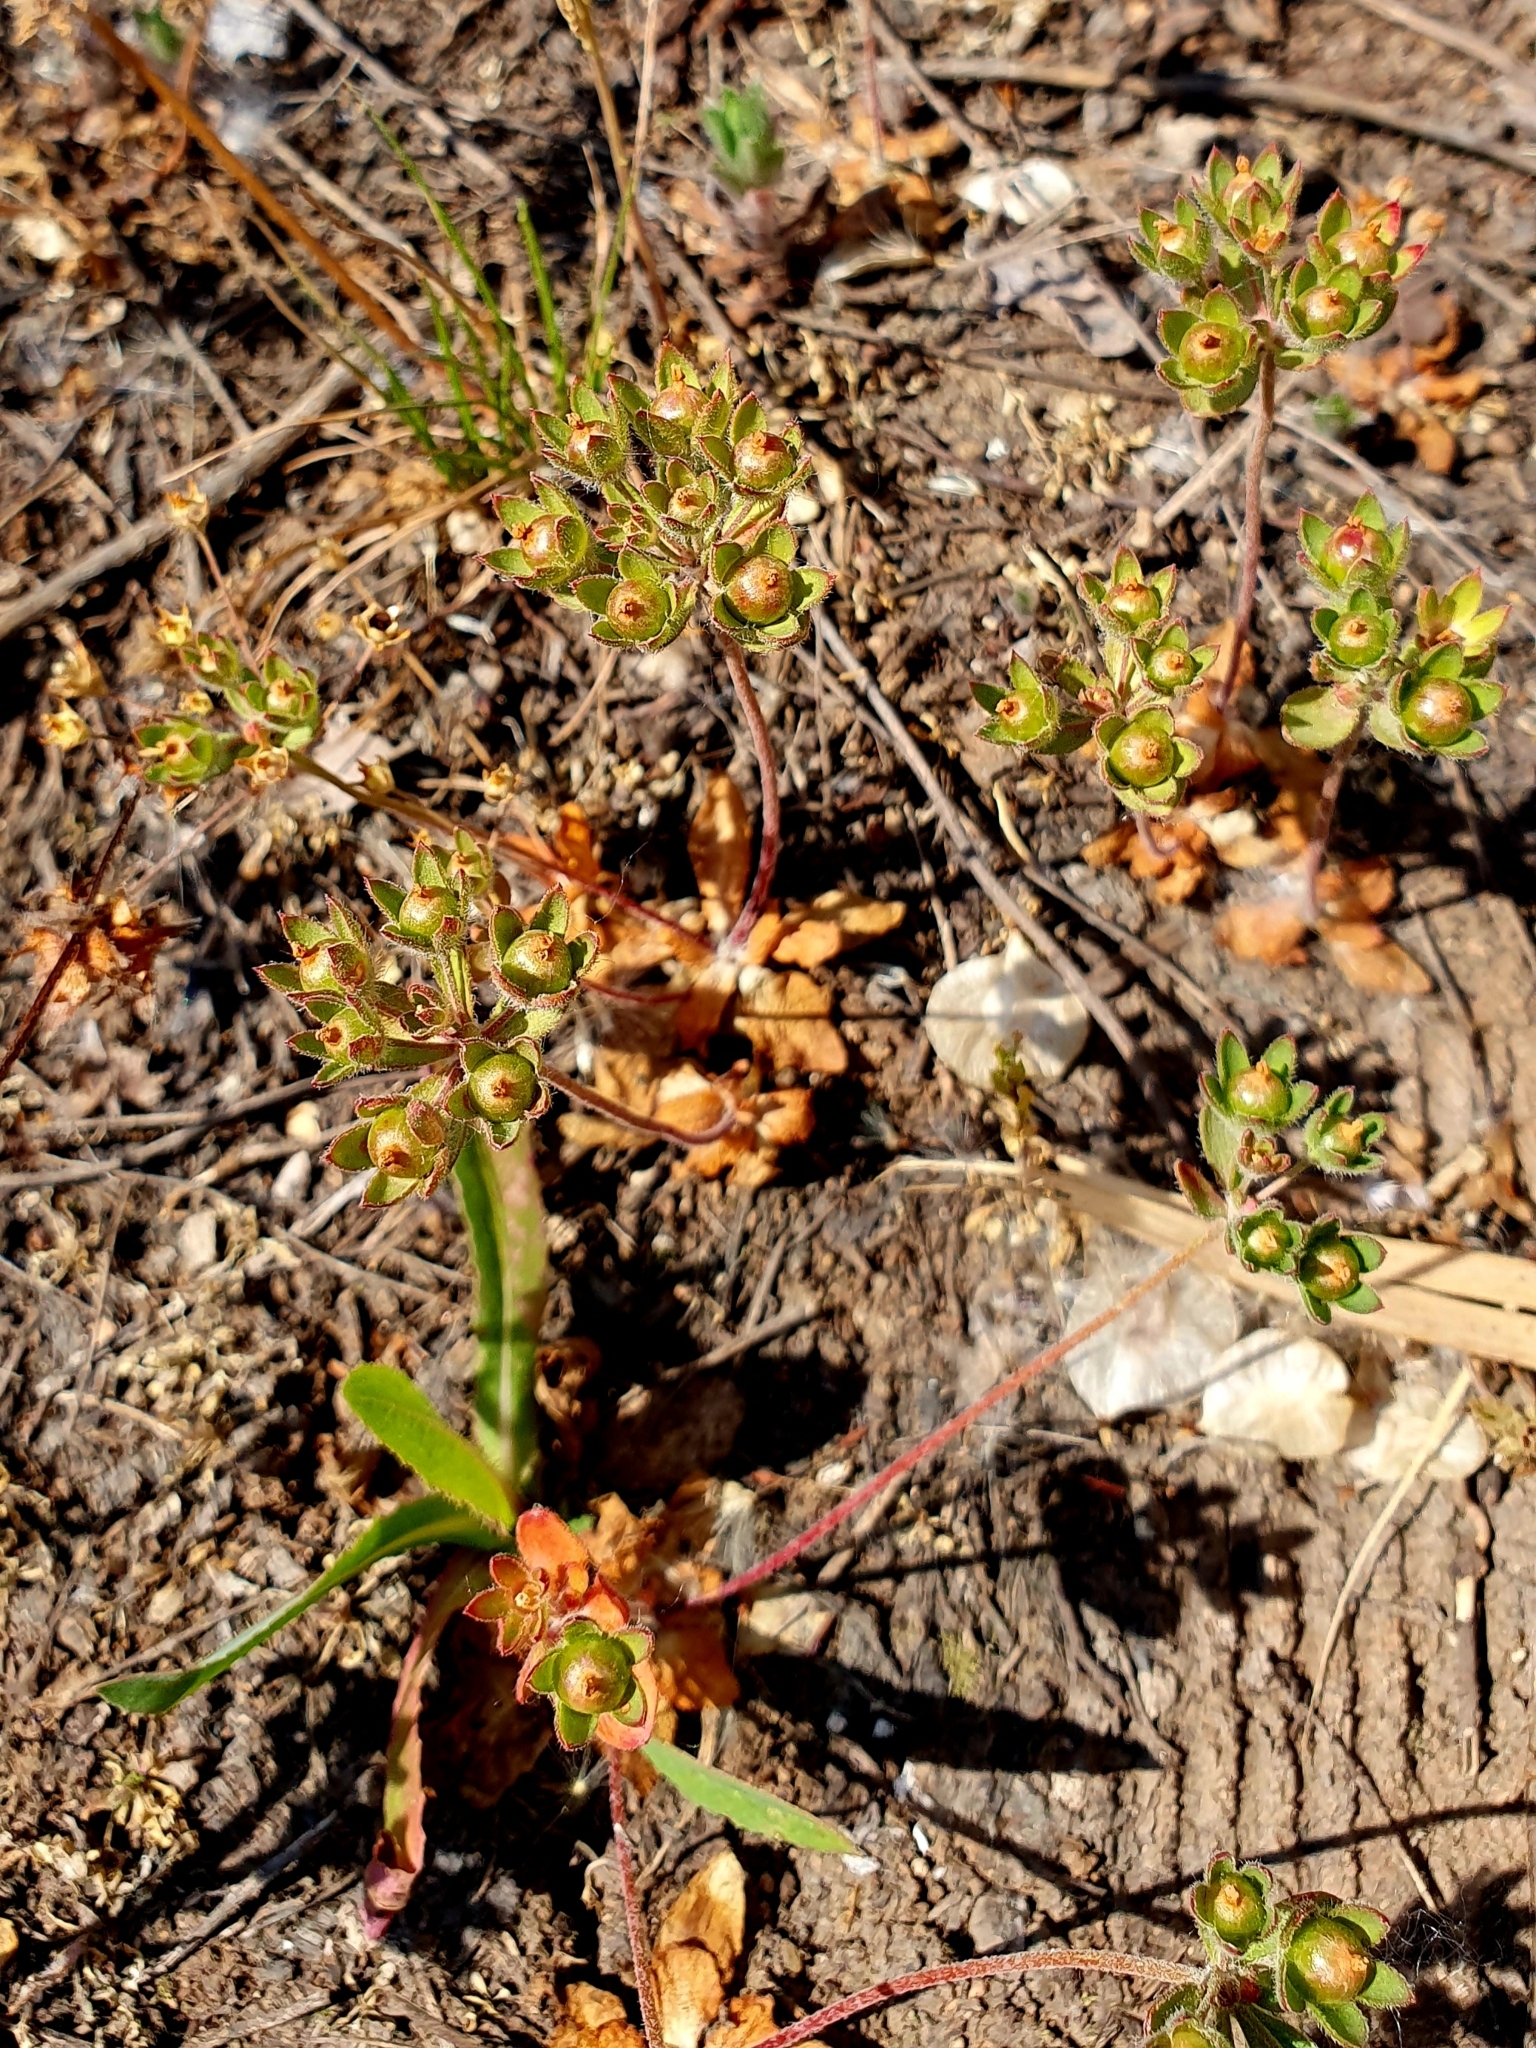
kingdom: Plantae
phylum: Tracheophyta
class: Magnoliopsida
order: Ericales
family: Primulaceae
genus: Androsace
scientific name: Androsace maxima
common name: Annual androsace
